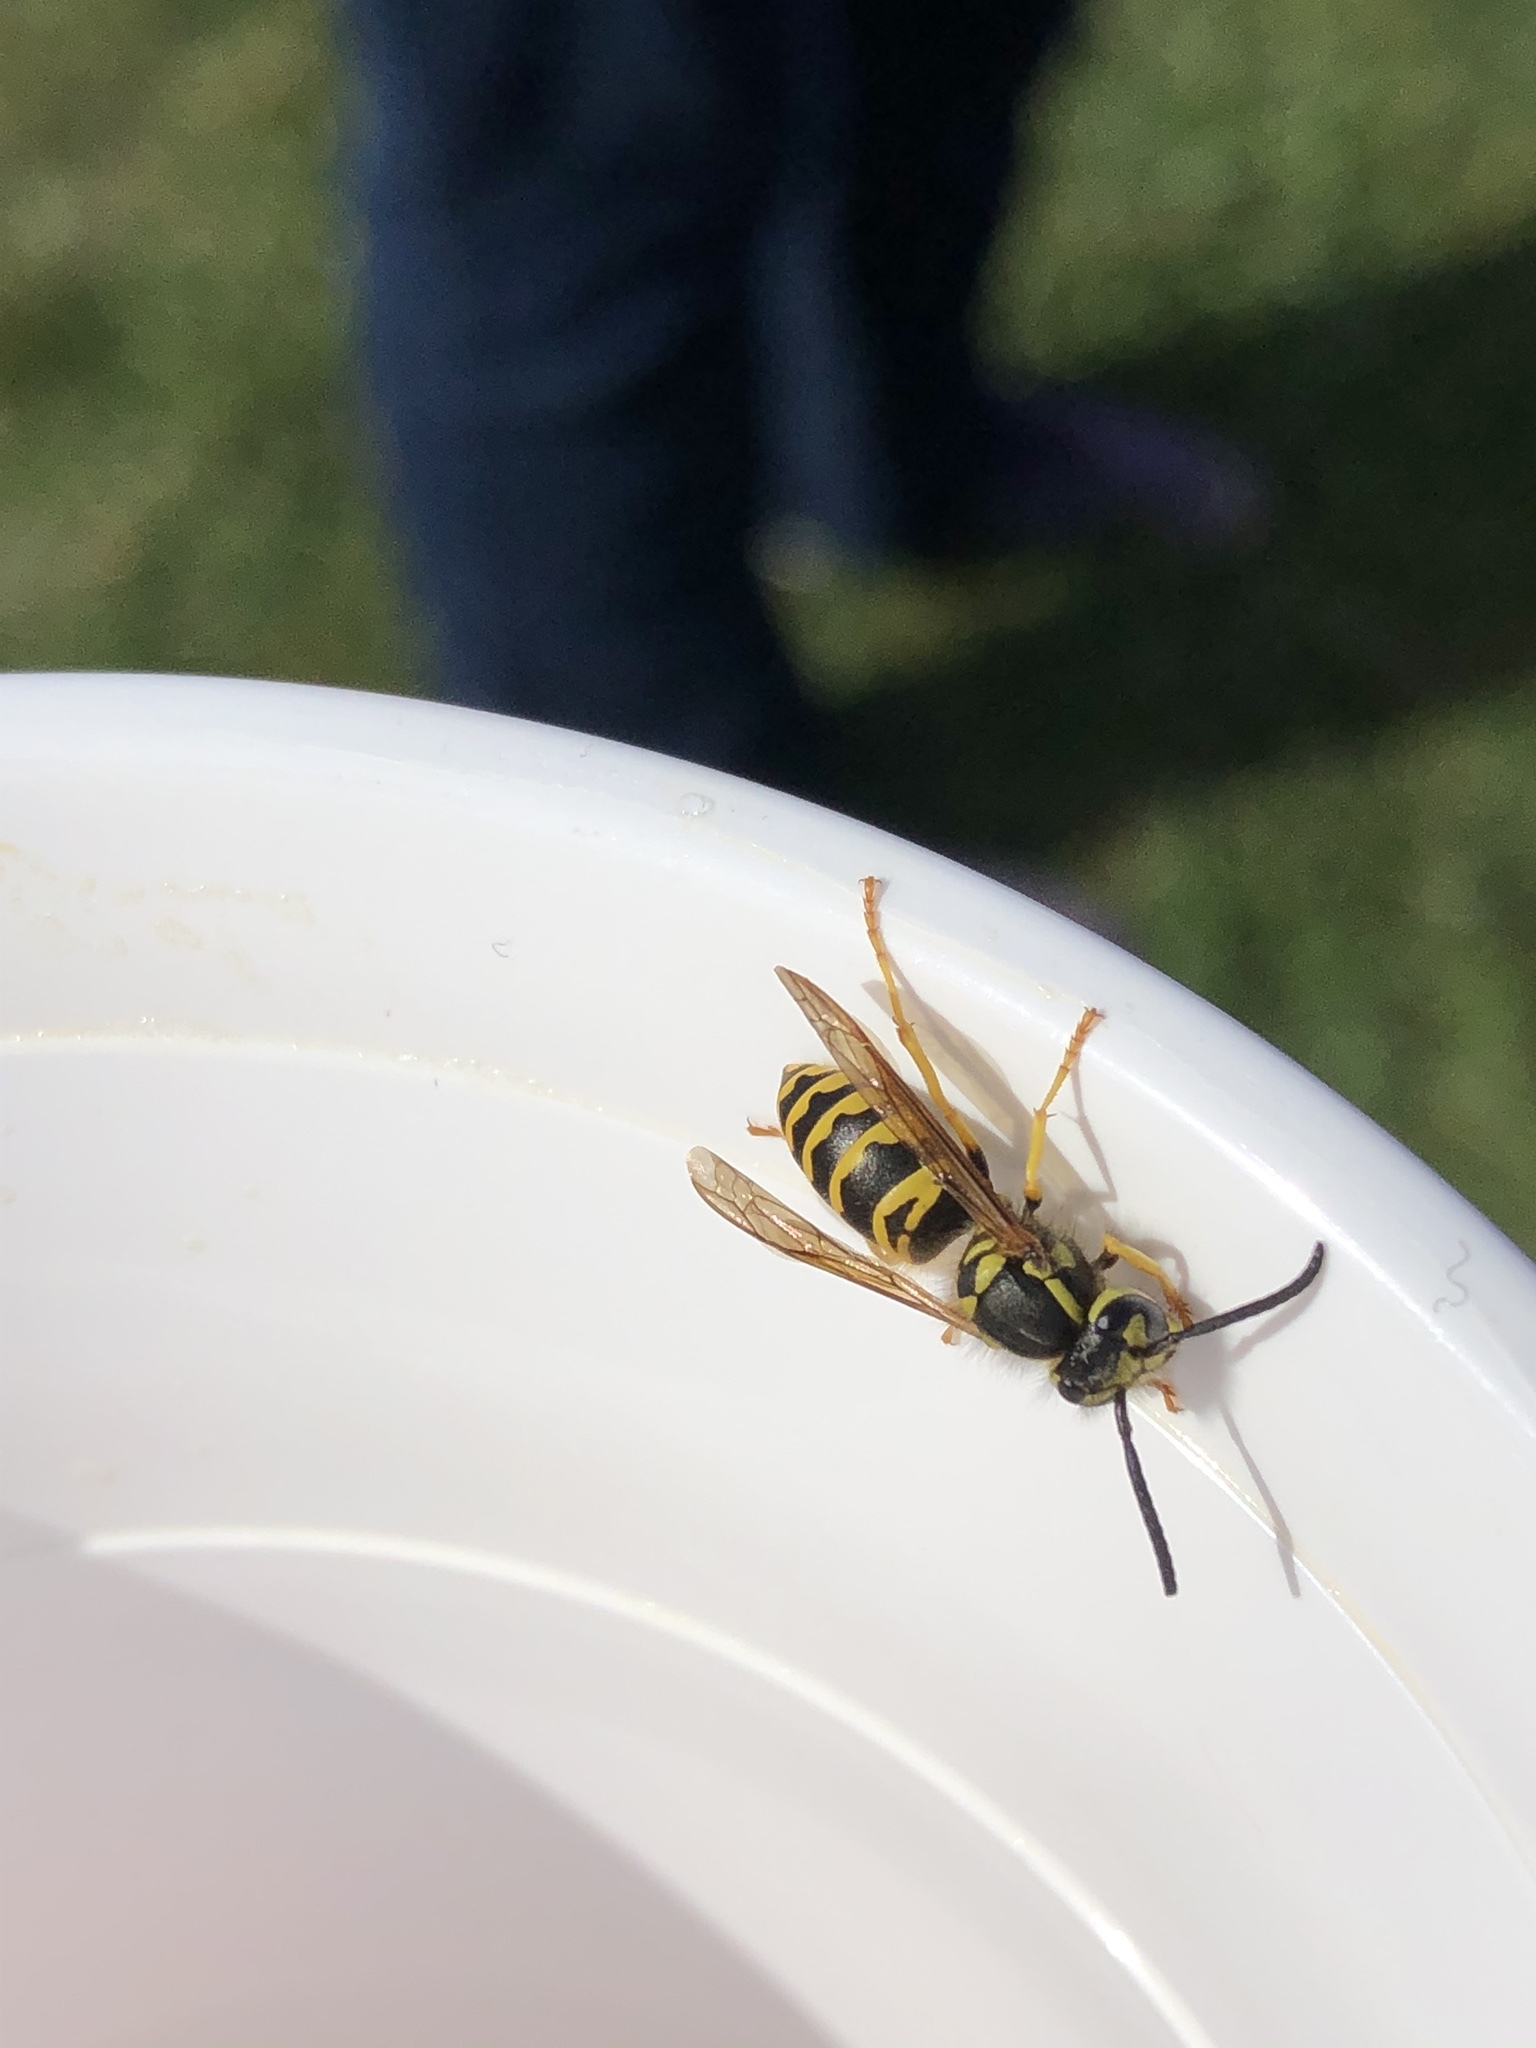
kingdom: Animalia
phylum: Arthropoda
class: Insecta
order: Hymenoptera
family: Vespidae
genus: Vespula
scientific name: Vespula maculifrons
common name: Eastern yellowjacket
